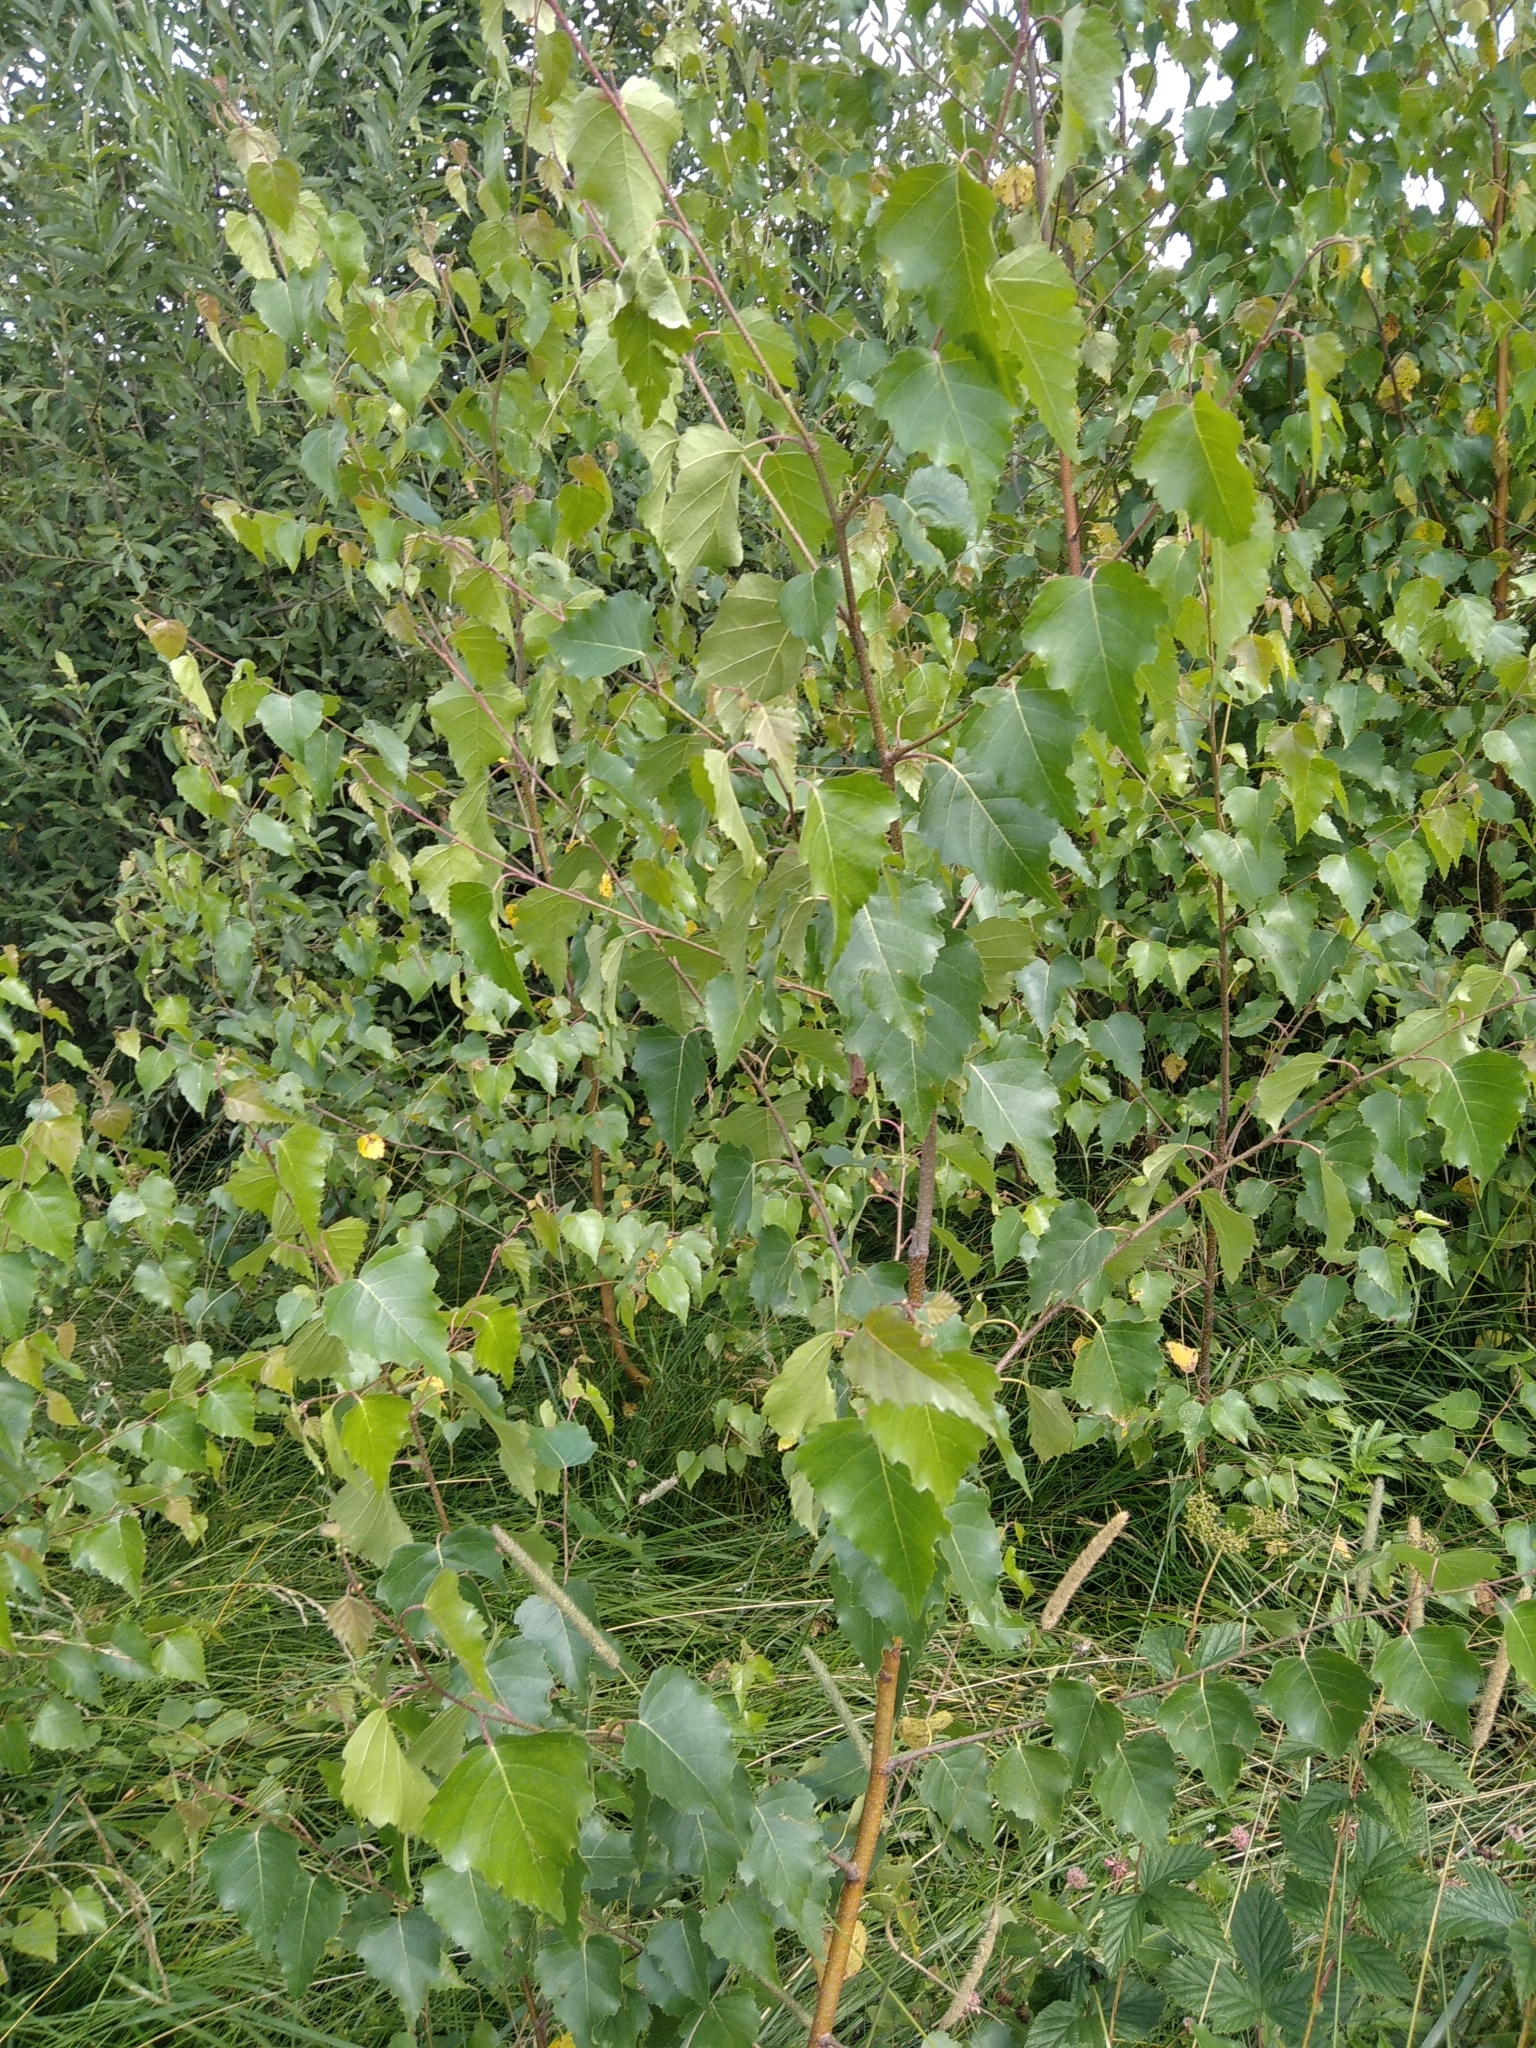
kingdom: Plantae
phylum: Tracheophyta
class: Magnoliopsida
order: Fagales
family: Betulaceae
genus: Betula
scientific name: Betula pendula
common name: Silver birch
